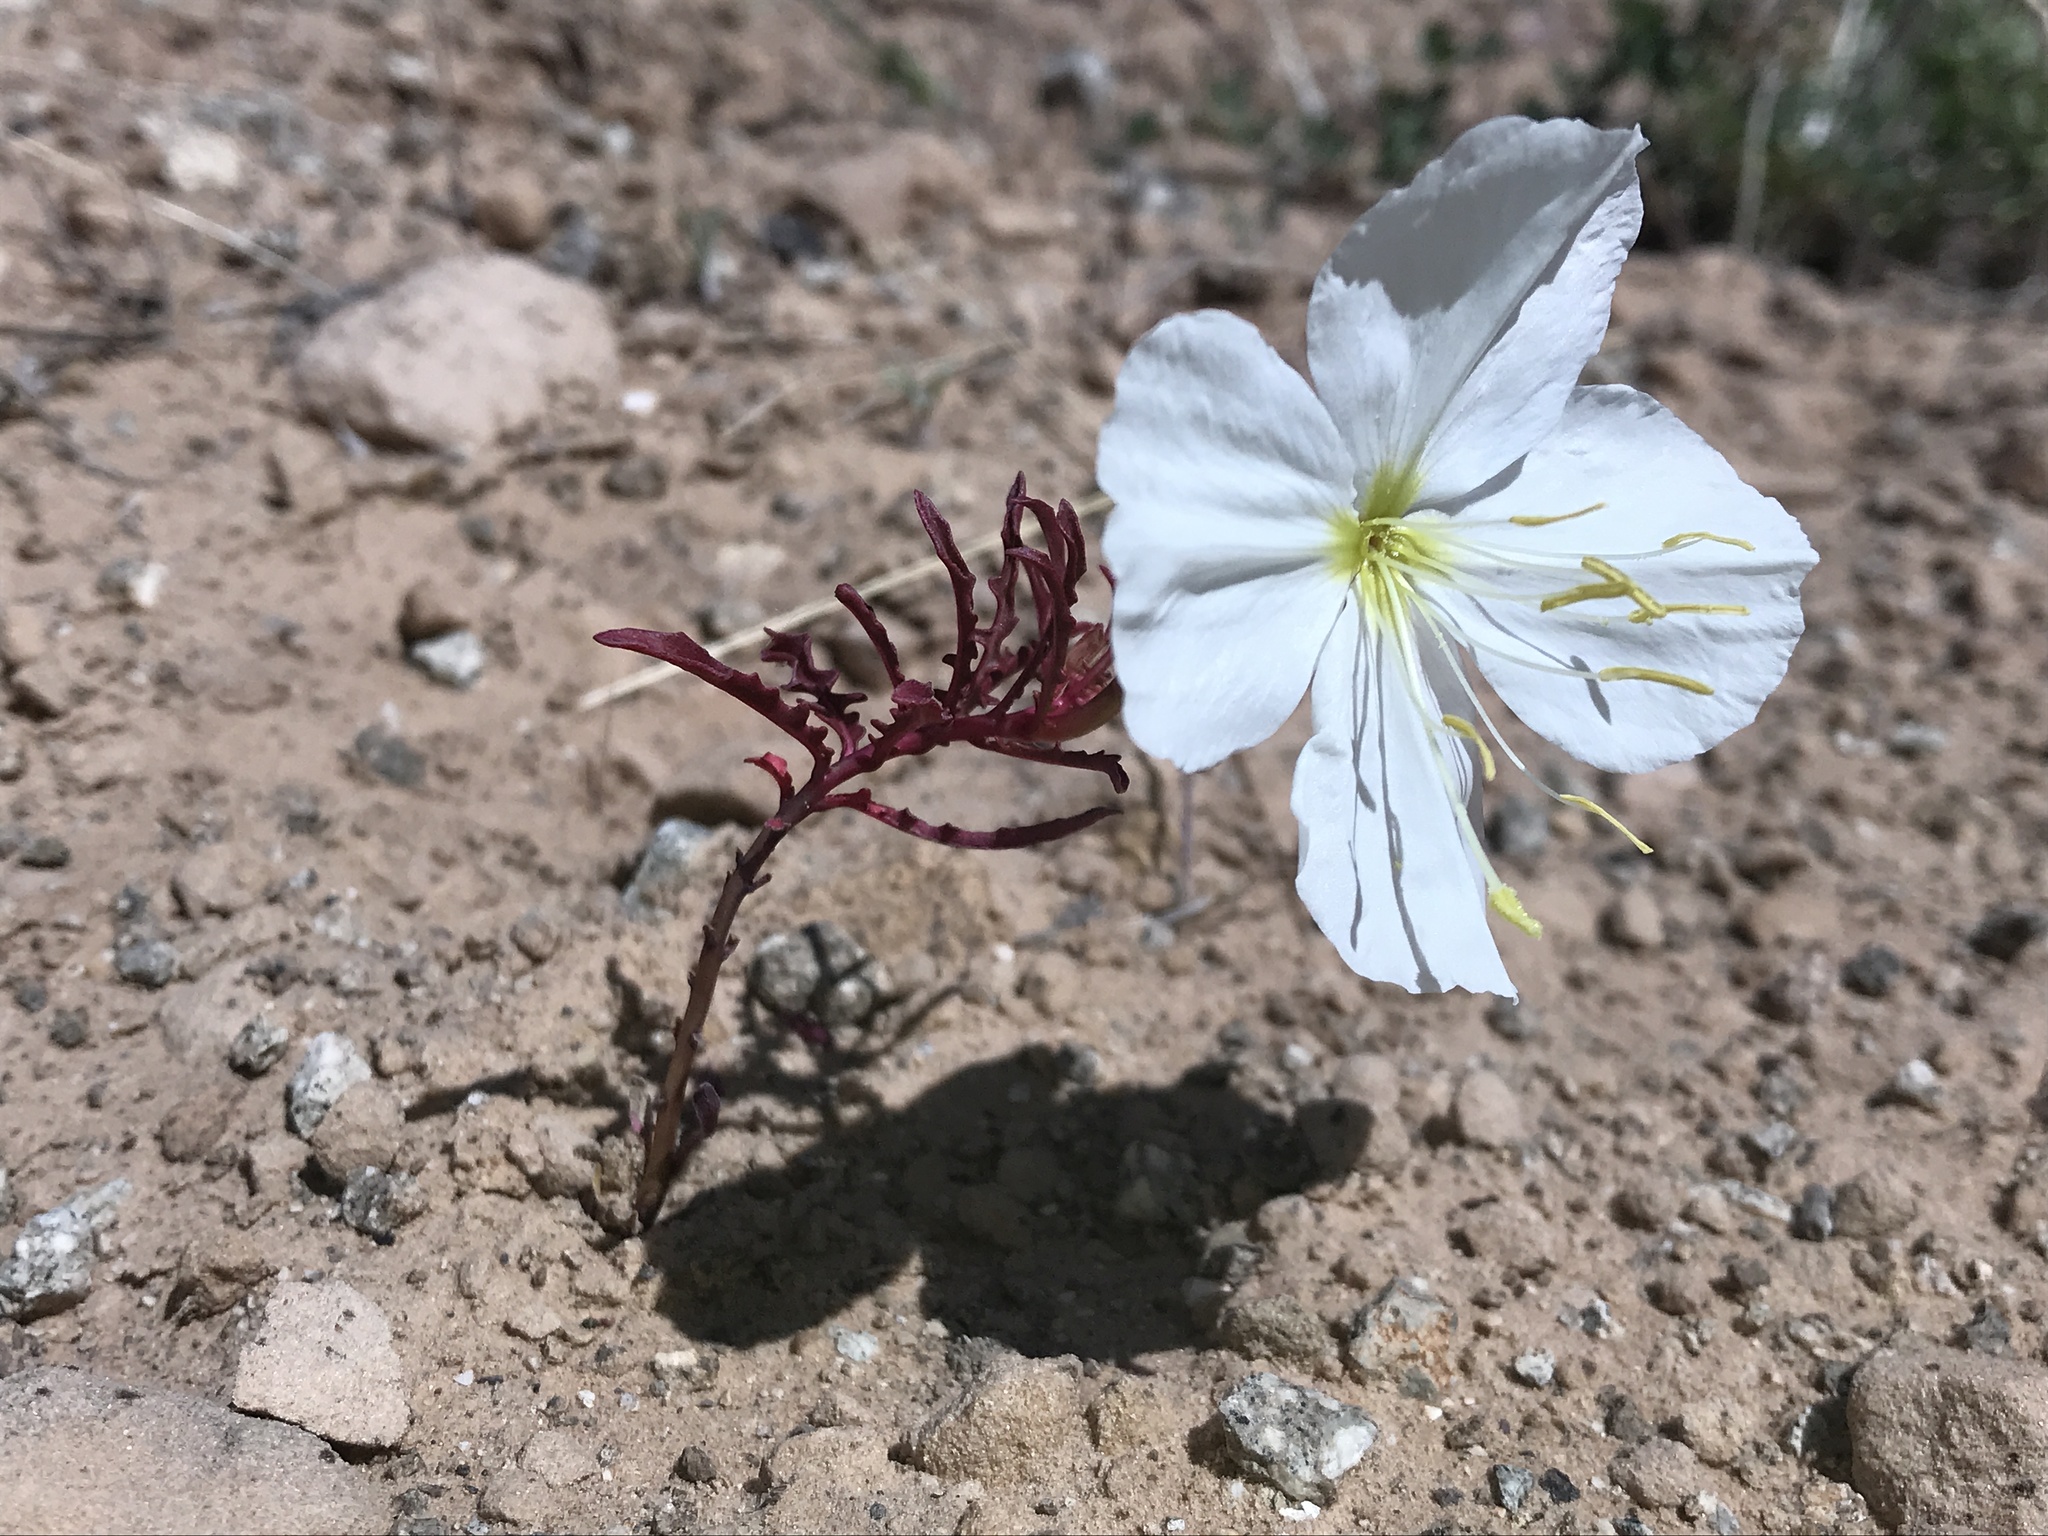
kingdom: Plantae
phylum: Tracheophyta
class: Magnoliopsida
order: Myrtales
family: Onagraceae
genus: Oenothera
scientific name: Oenothera pallida
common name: Pale evening-primrose
